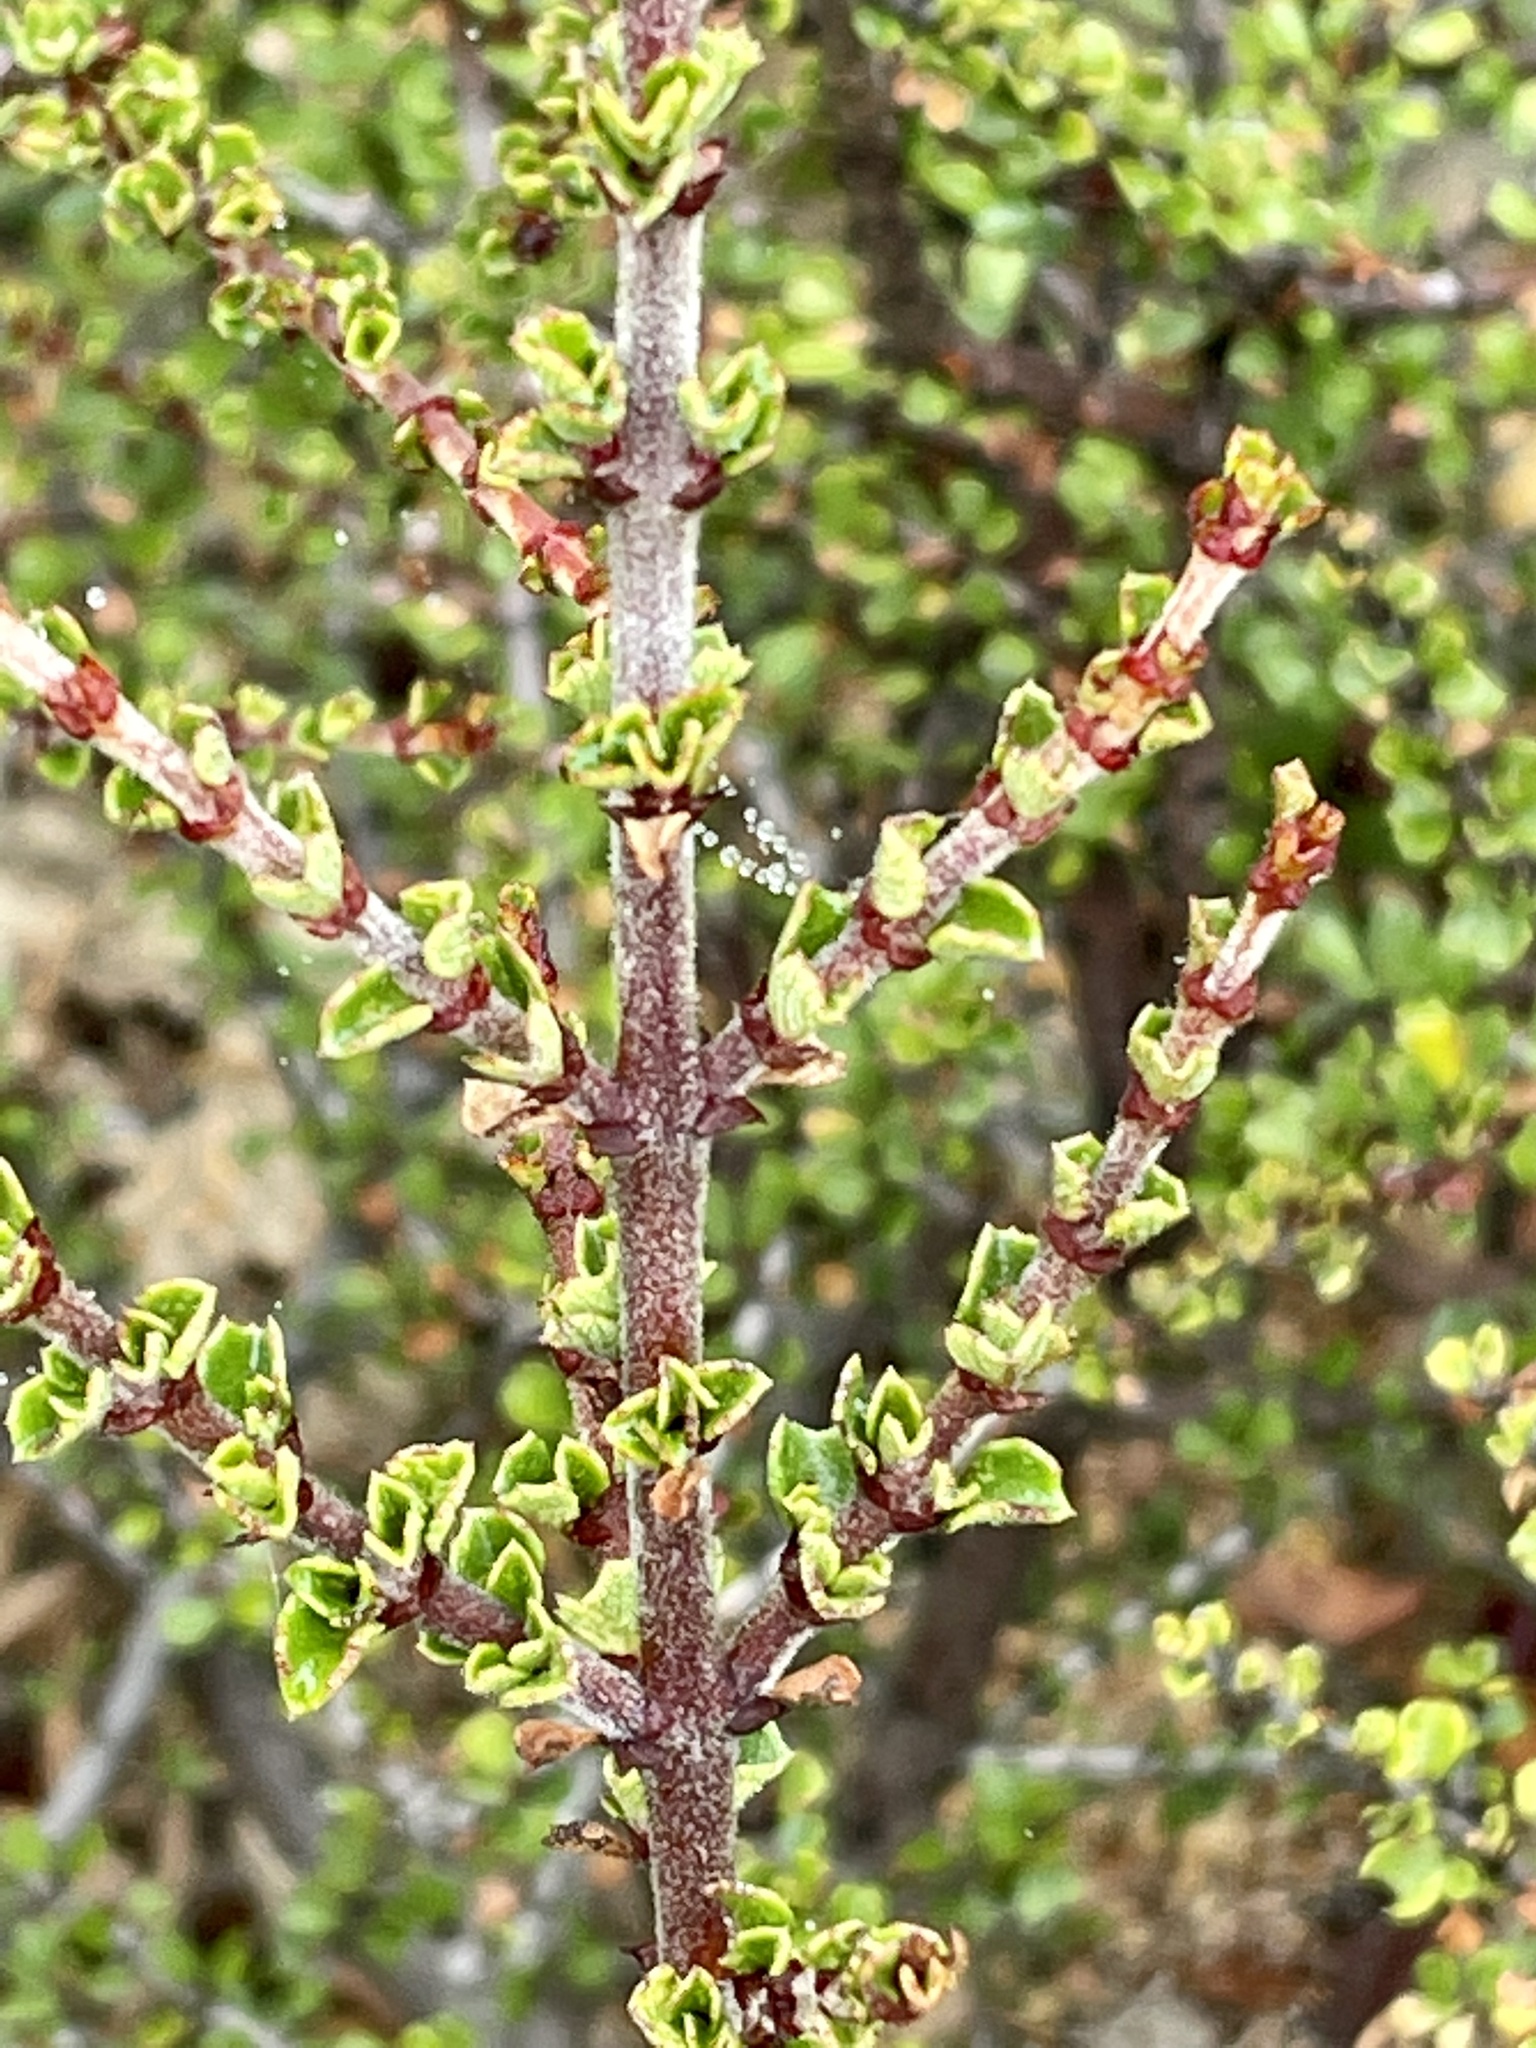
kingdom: Plantae
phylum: Tracheophyta
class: Magnoliopsida
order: Rosales
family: Rhamnaceae
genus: Ceanothus
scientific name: Ceanothus cuneatus
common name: Cuneate ceanothus
